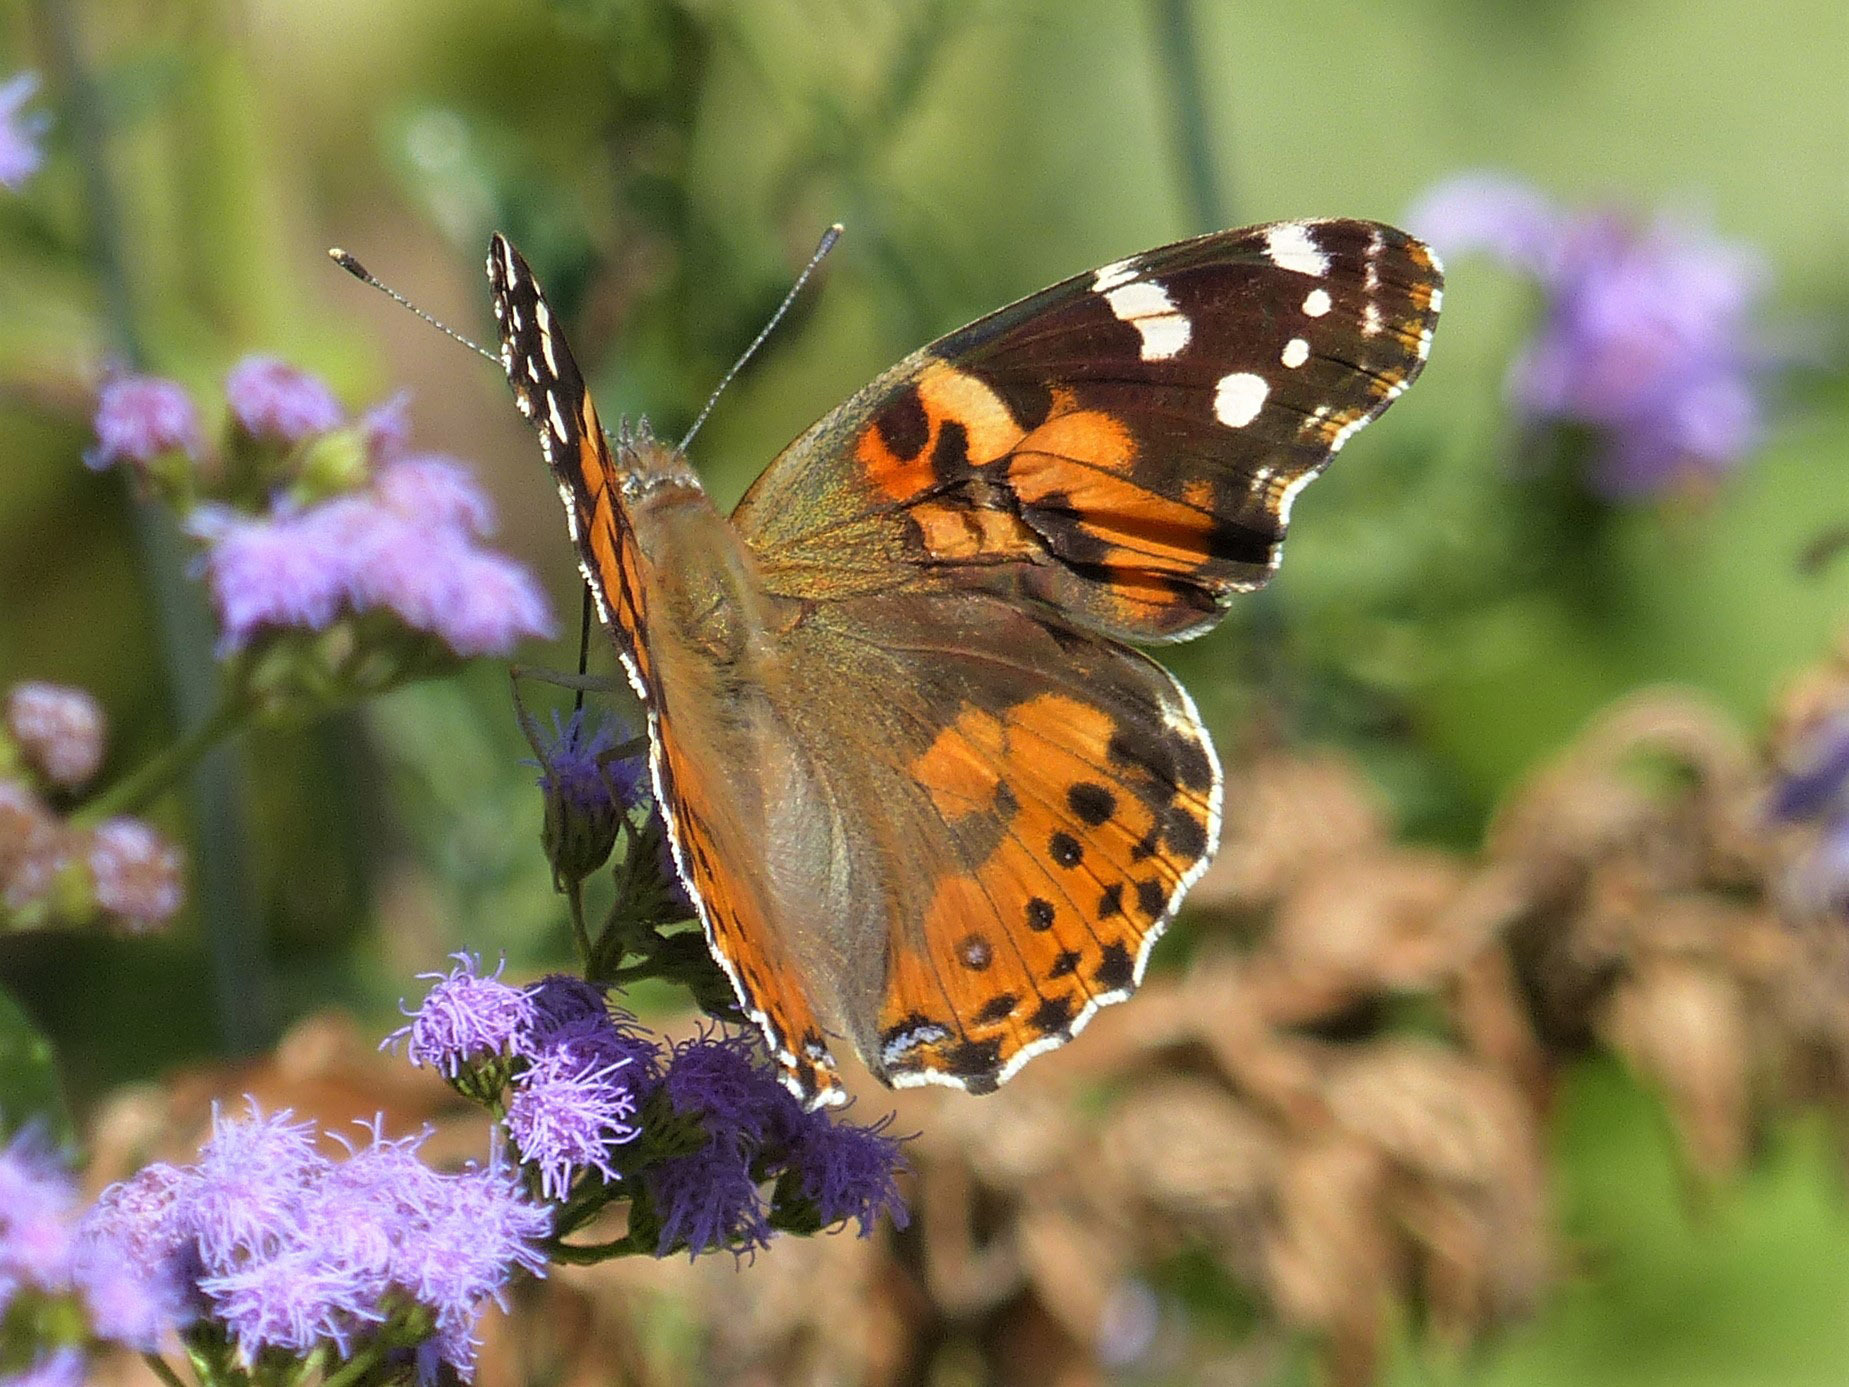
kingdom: Animalia
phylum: Arthropoda
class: Insecta
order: Lepidoptera
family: Nymphalidae
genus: Vanessa
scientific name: Vanessa cardui
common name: Painted lady
